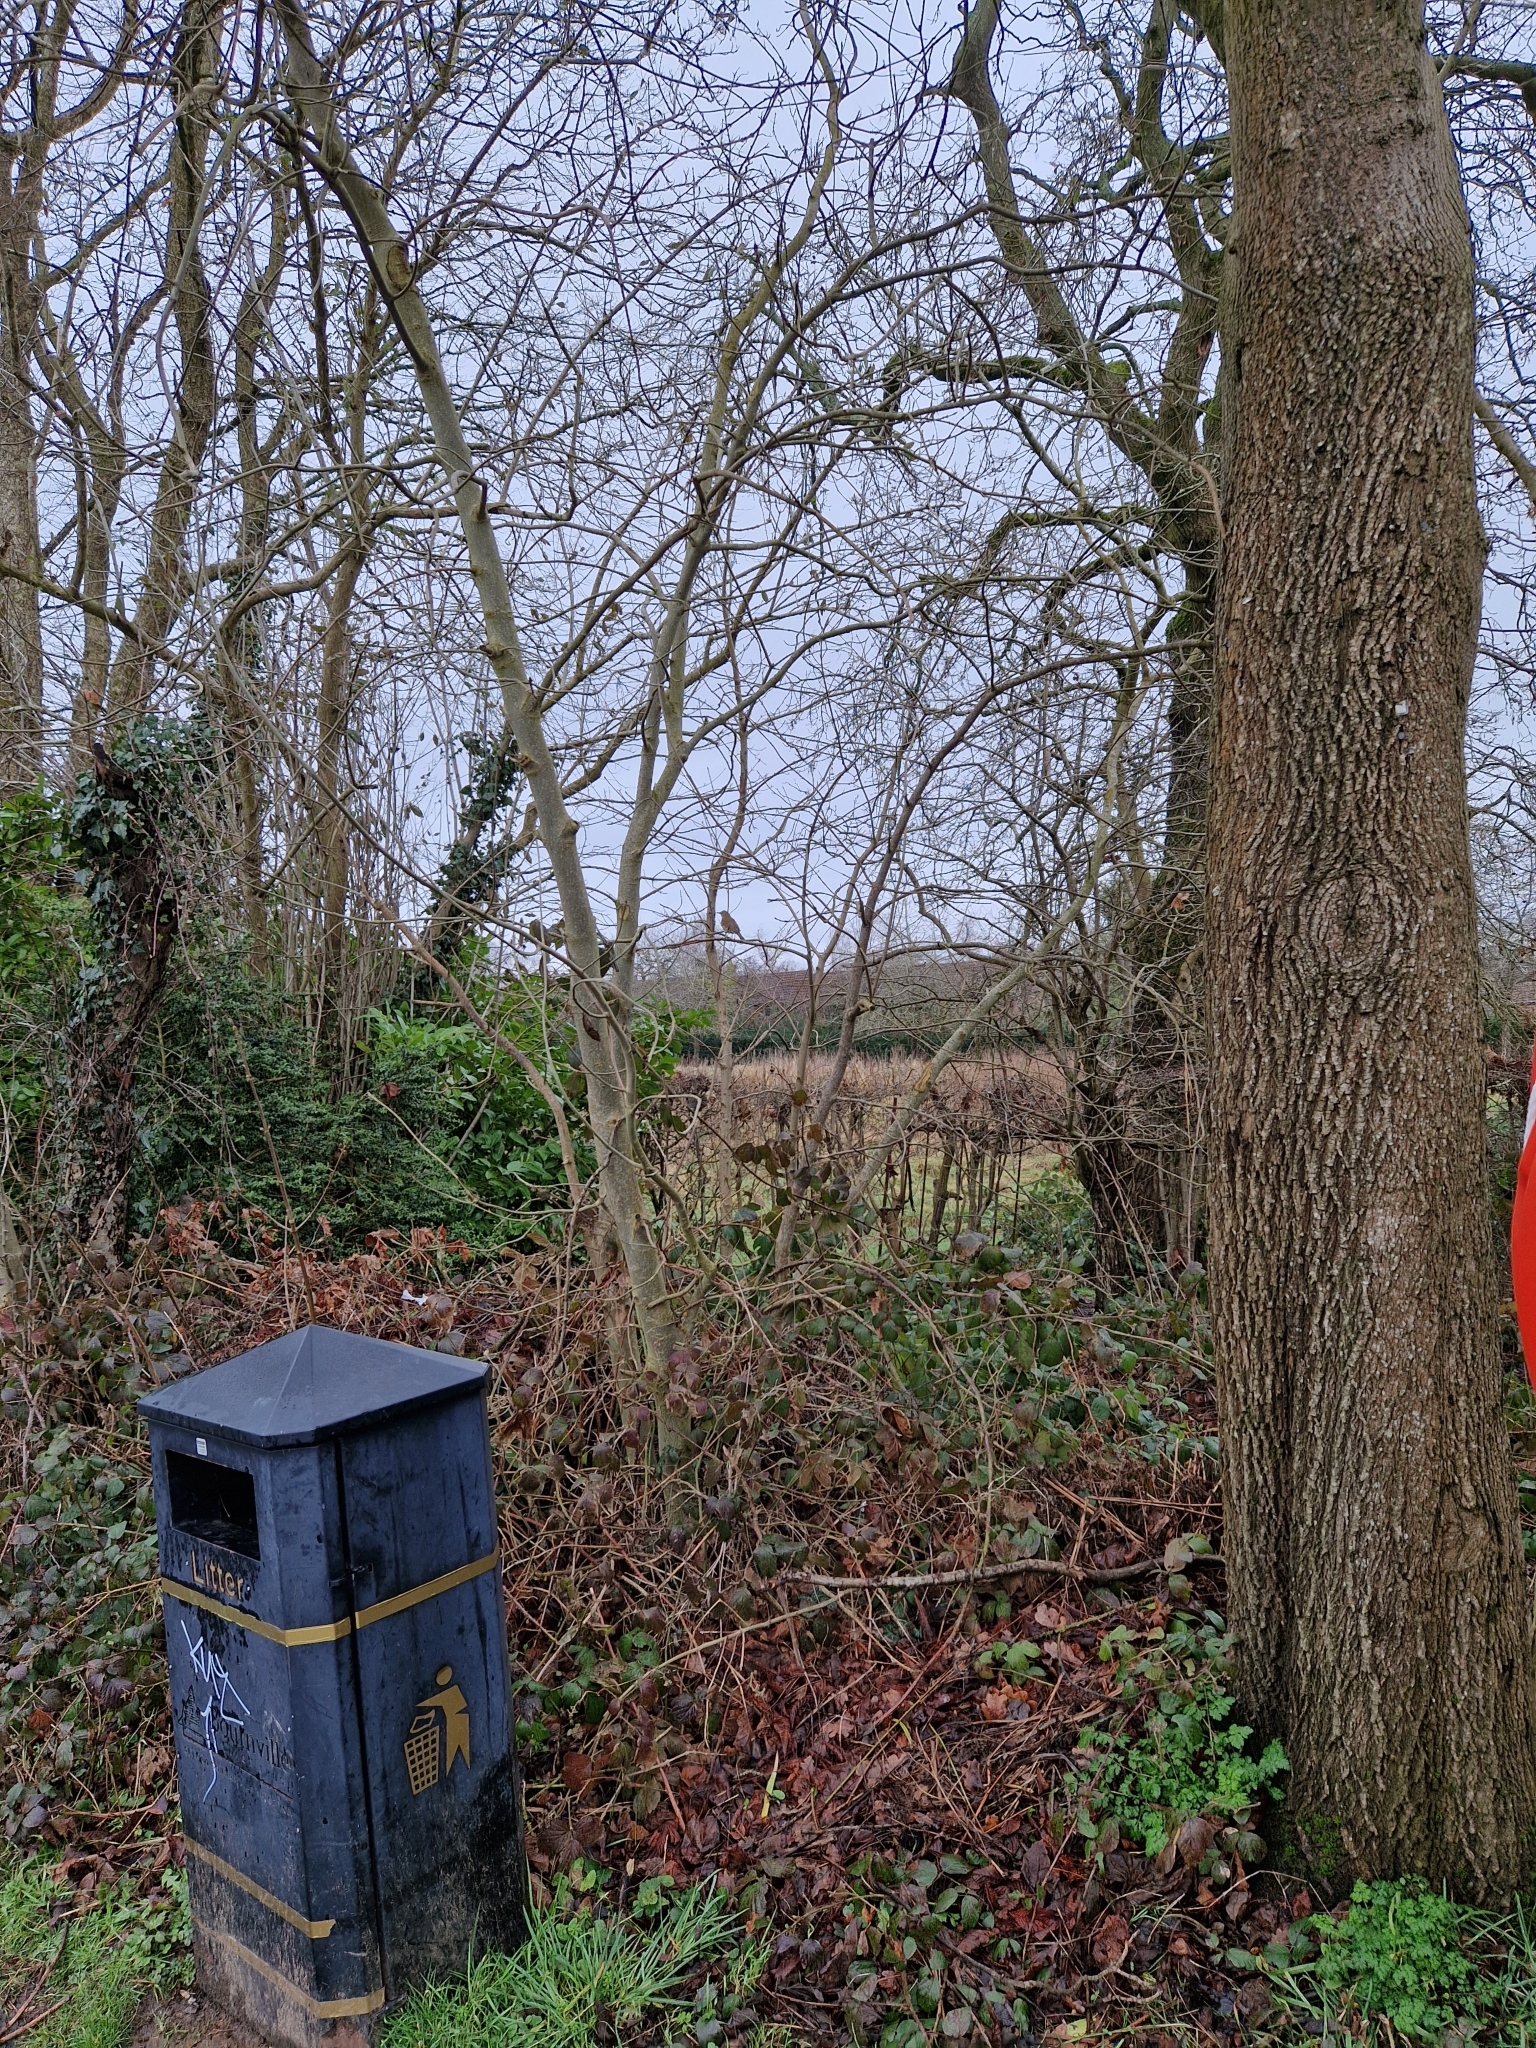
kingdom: Animalia
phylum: Chordata
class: Aves
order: Passeriformes
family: Turdidae
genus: Turdus
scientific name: Turdus philomelos
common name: Song thrush
